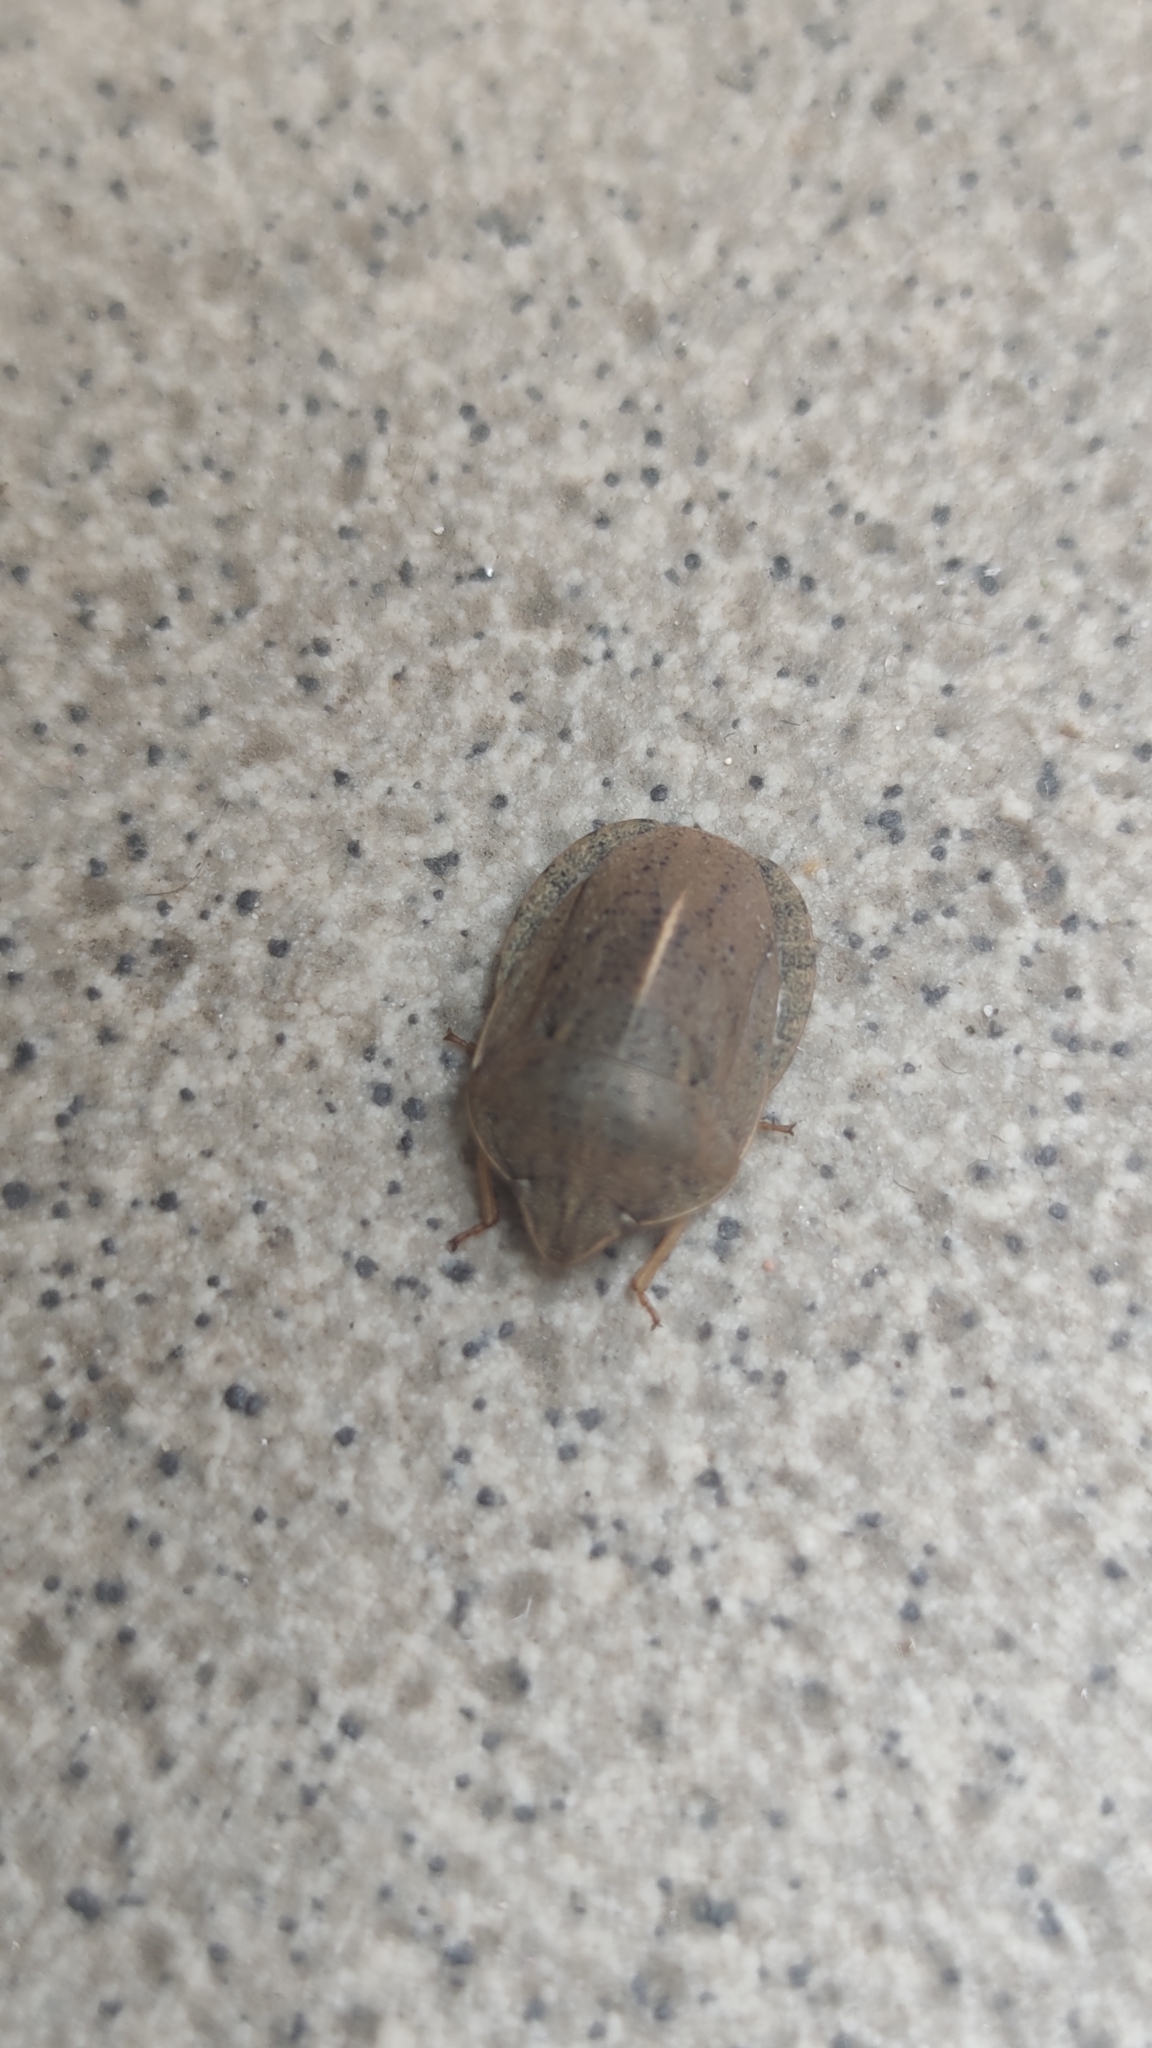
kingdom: Animalia
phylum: Arthropoda
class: Insecta
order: Hemiptera
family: Scutelleridae
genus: Eurygaster
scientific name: Eurygaster austriaca
